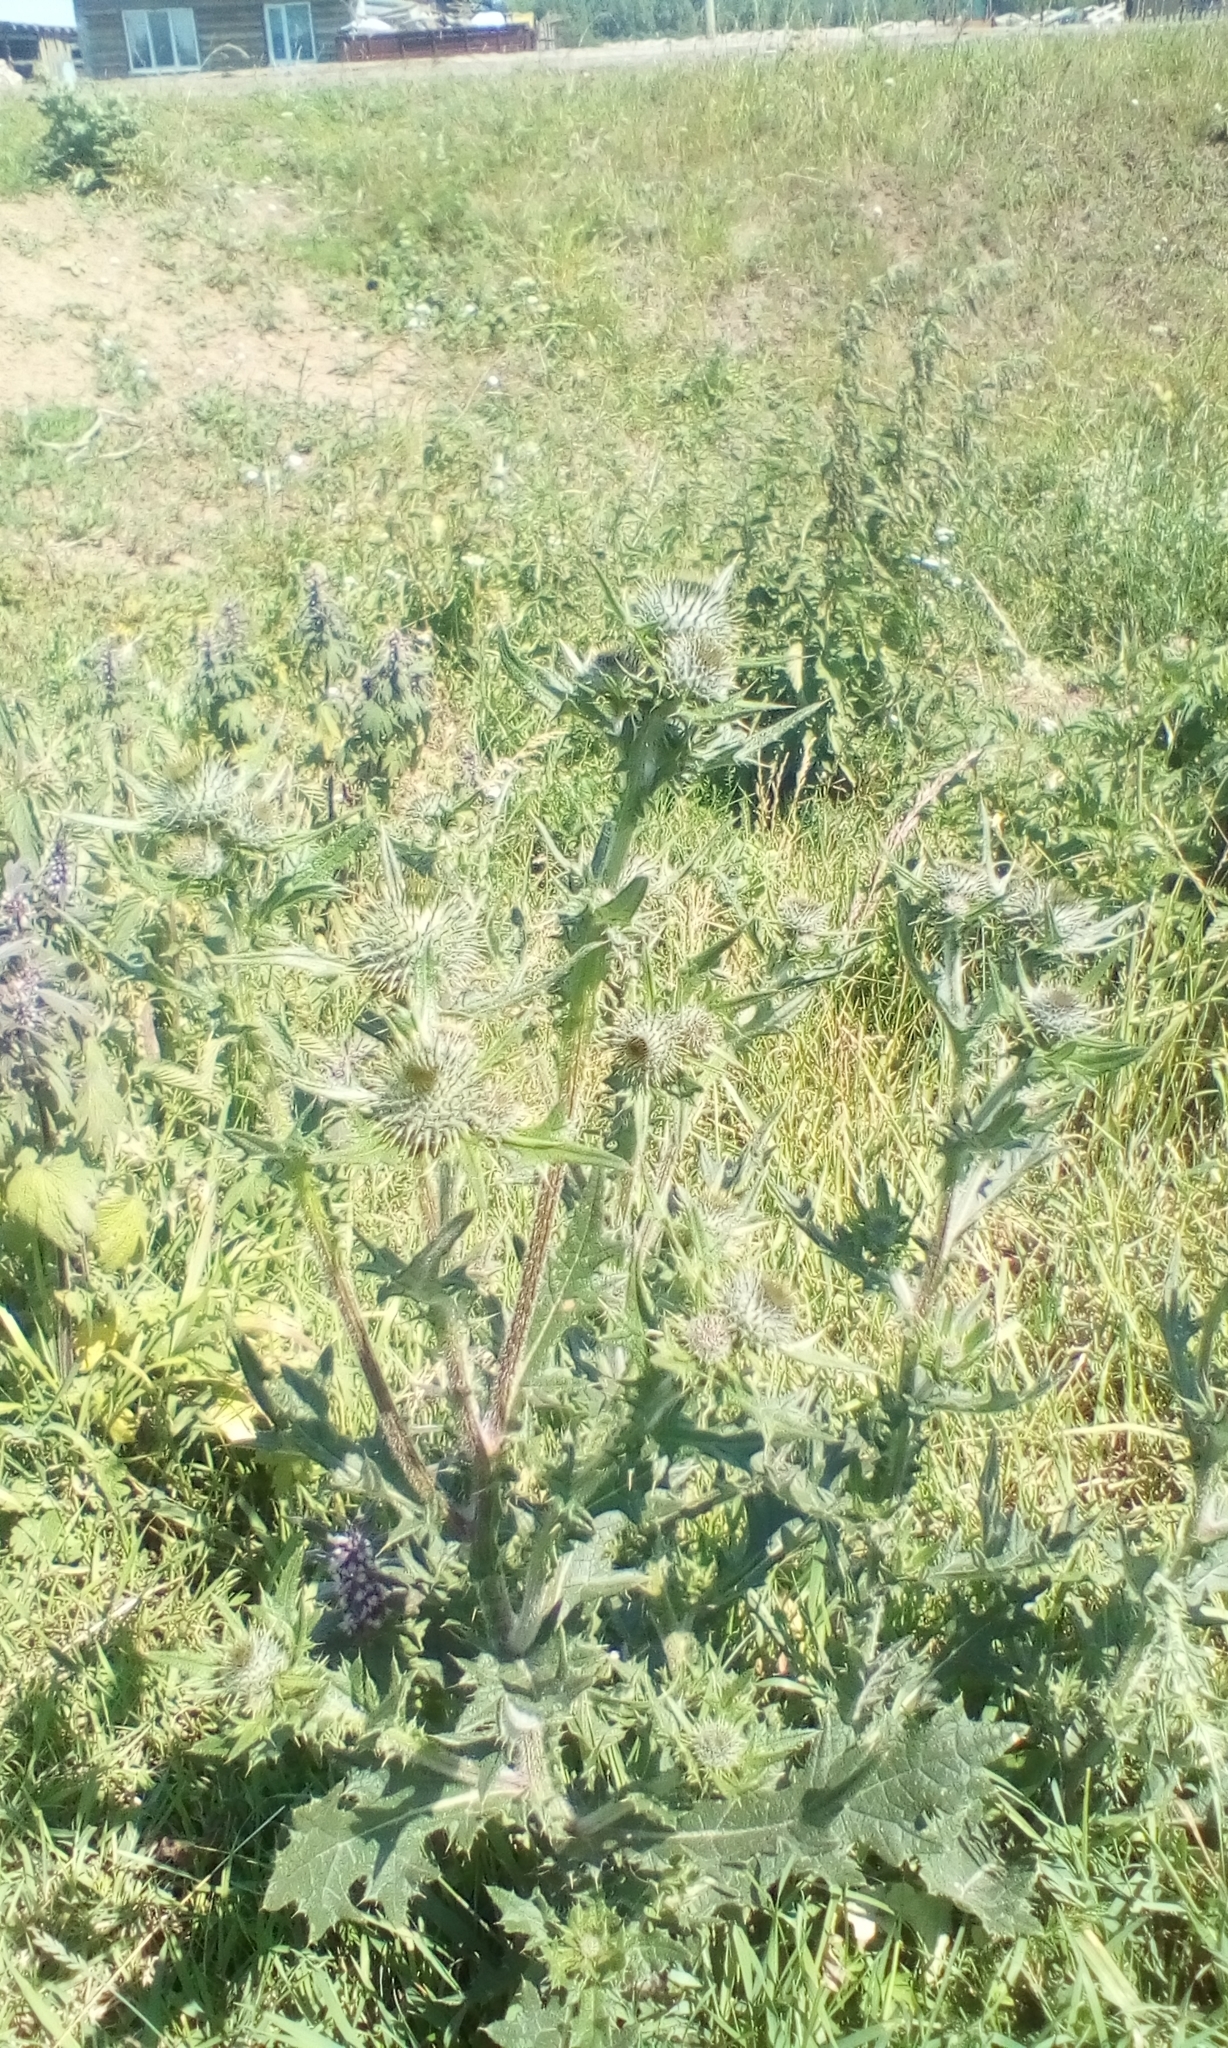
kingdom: Plantae
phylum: Tracheophyta
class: Magnoliopsida
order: Asterales
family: Asteraceae
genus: Cirsium
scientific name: Cirsium vulgare
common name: Bull thistle
